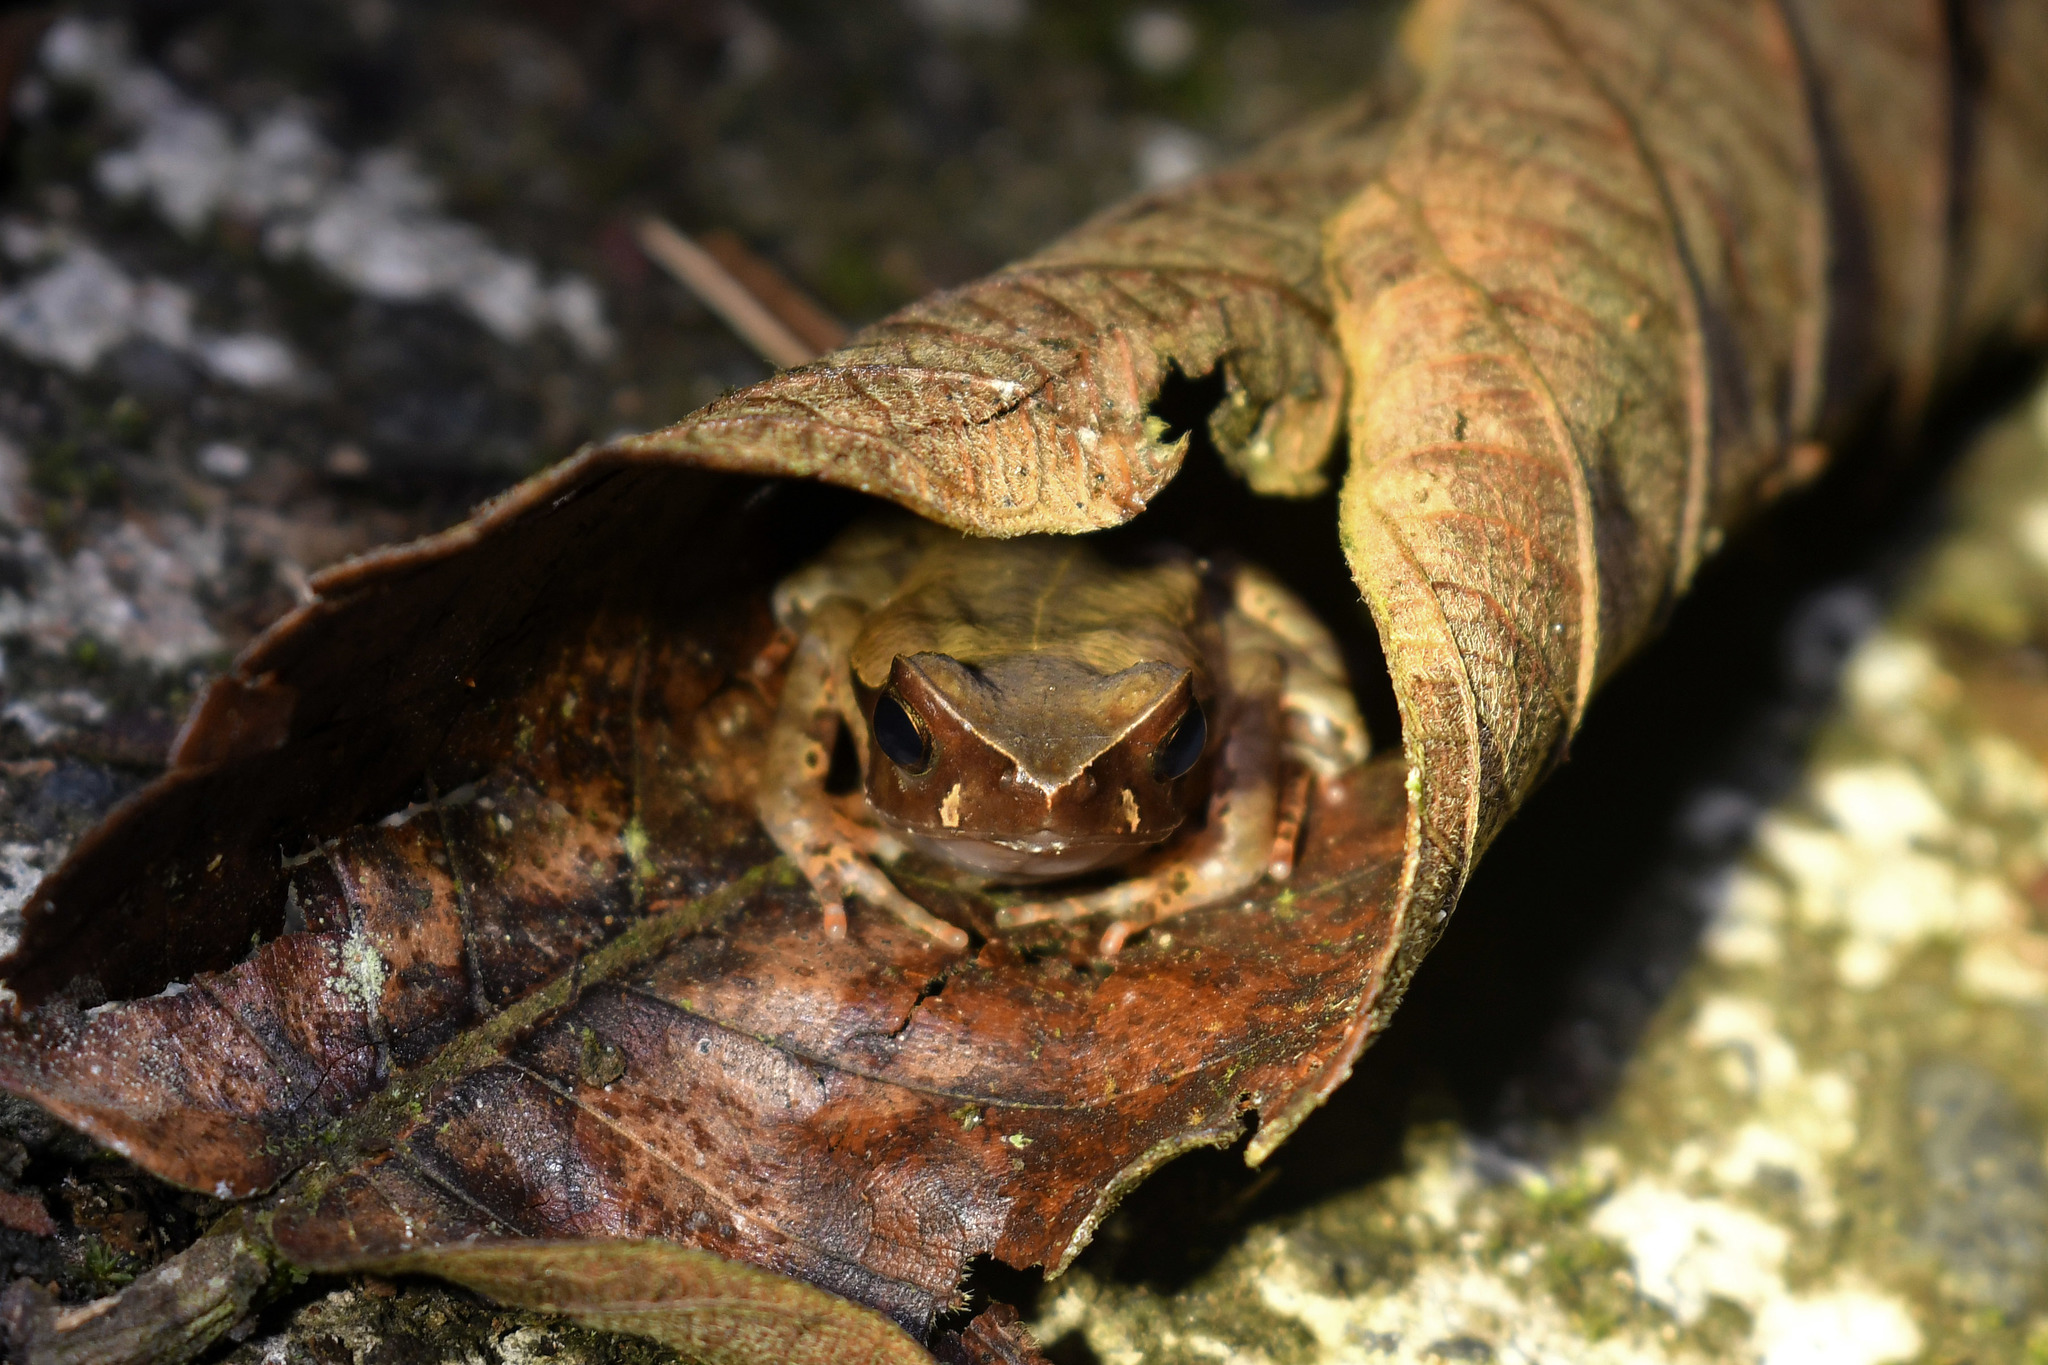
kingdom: Animalia
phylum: Chordata
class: Amphibia
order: Anura
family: Bufonidae
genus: Rhaebo
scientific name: Rhaebo haematiticus
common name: Truando toad
